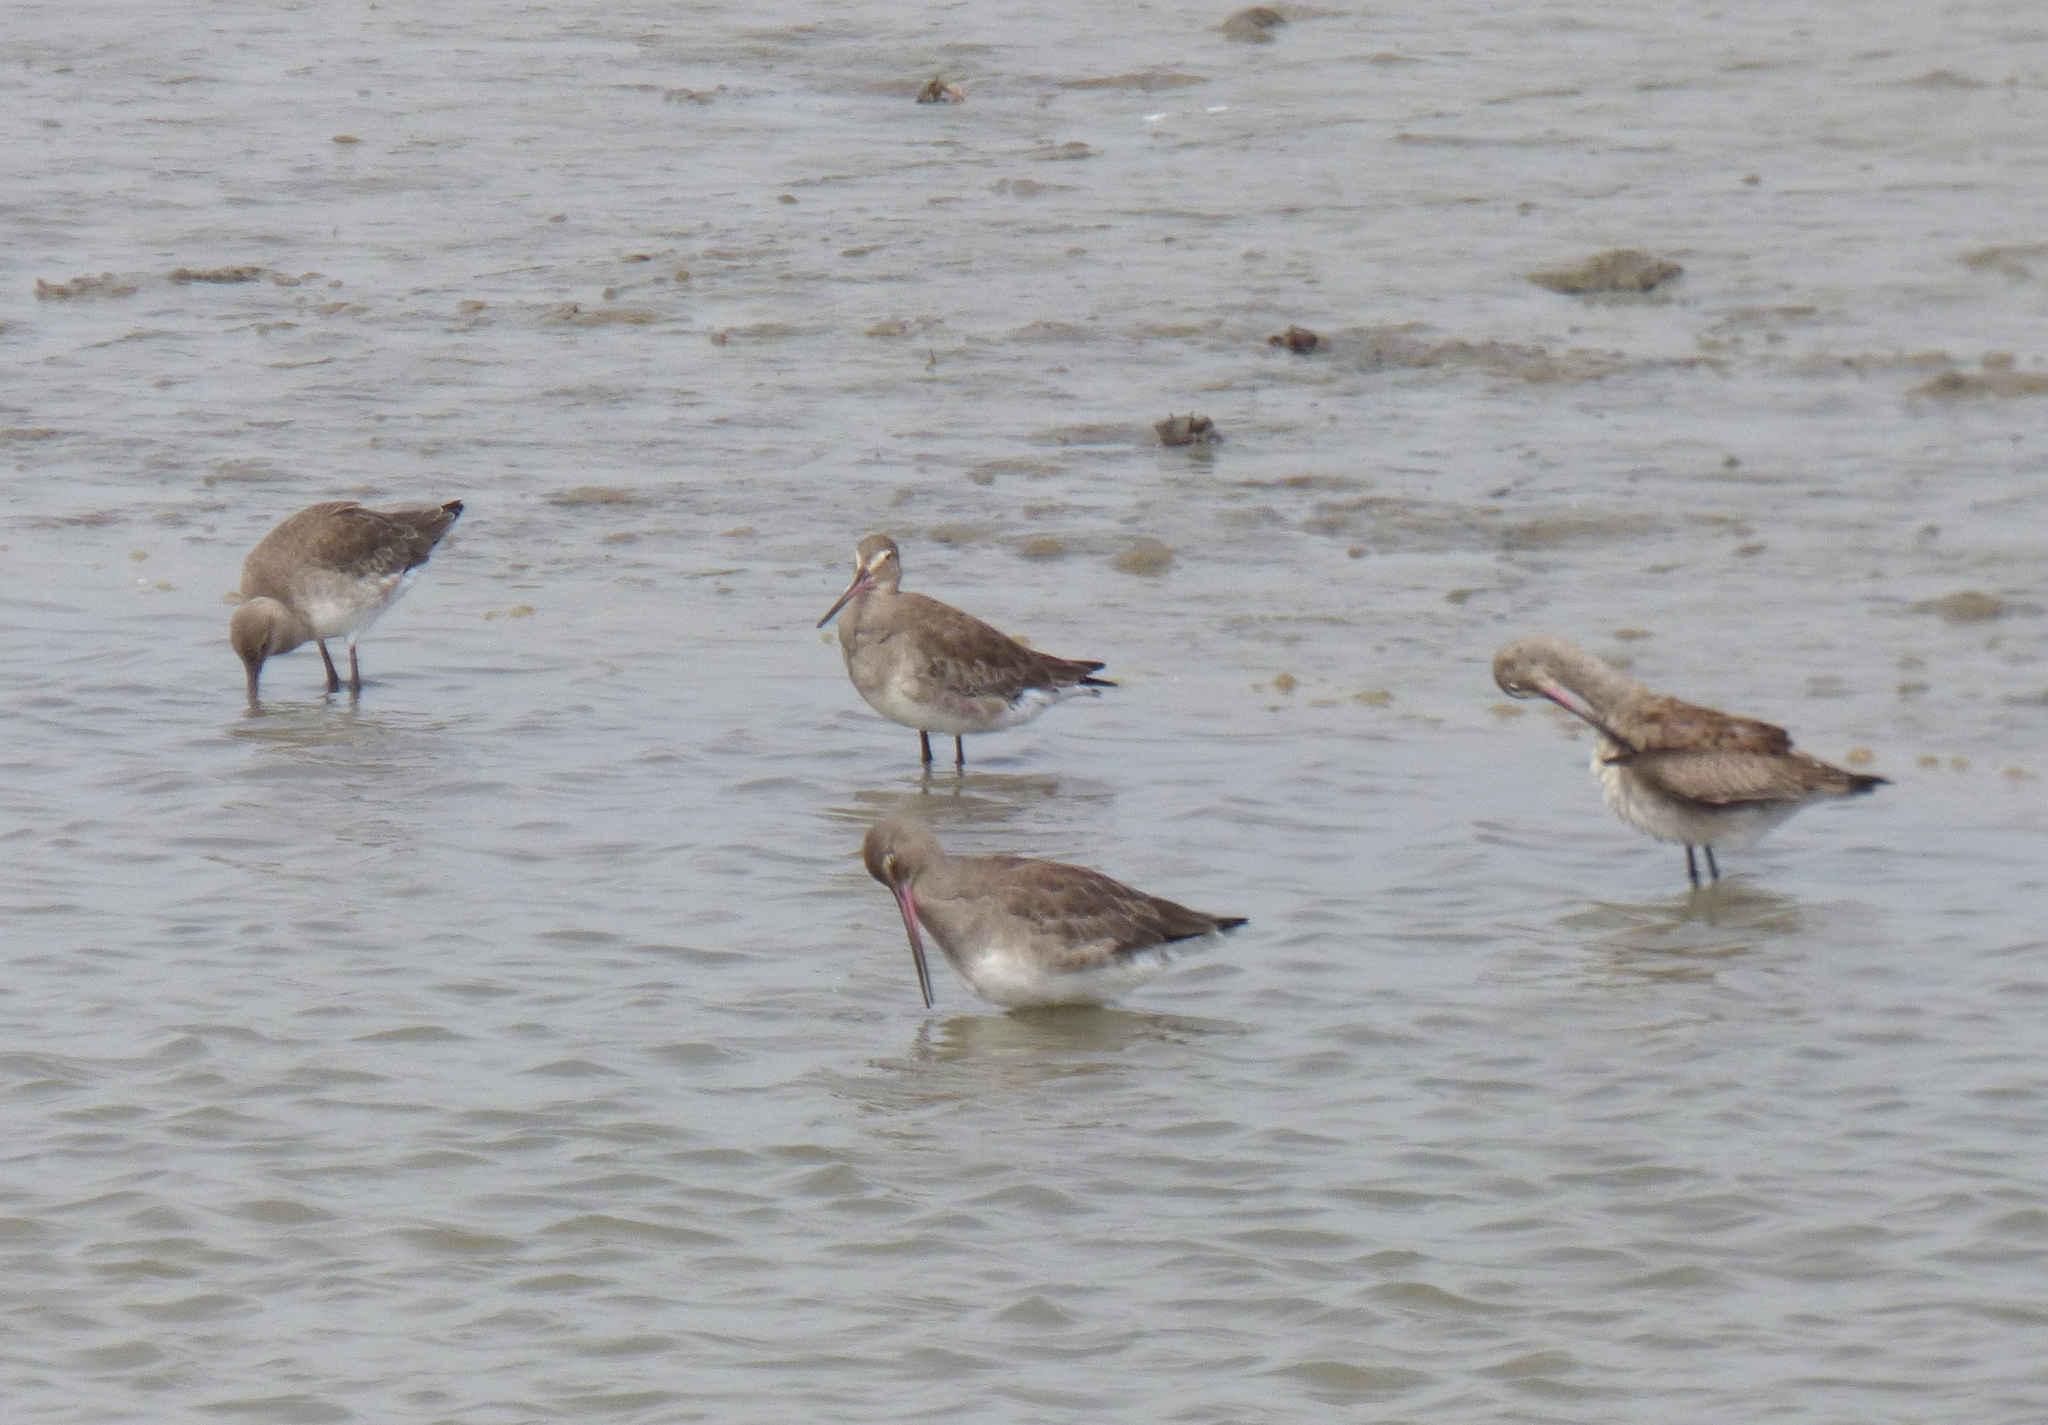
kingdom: Animalia
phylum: Chordata
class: Aves
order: Charadriiformes
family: Scolopacidae
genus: Limosa
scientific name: Limosa haemastica
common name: Hudsonian godwit
